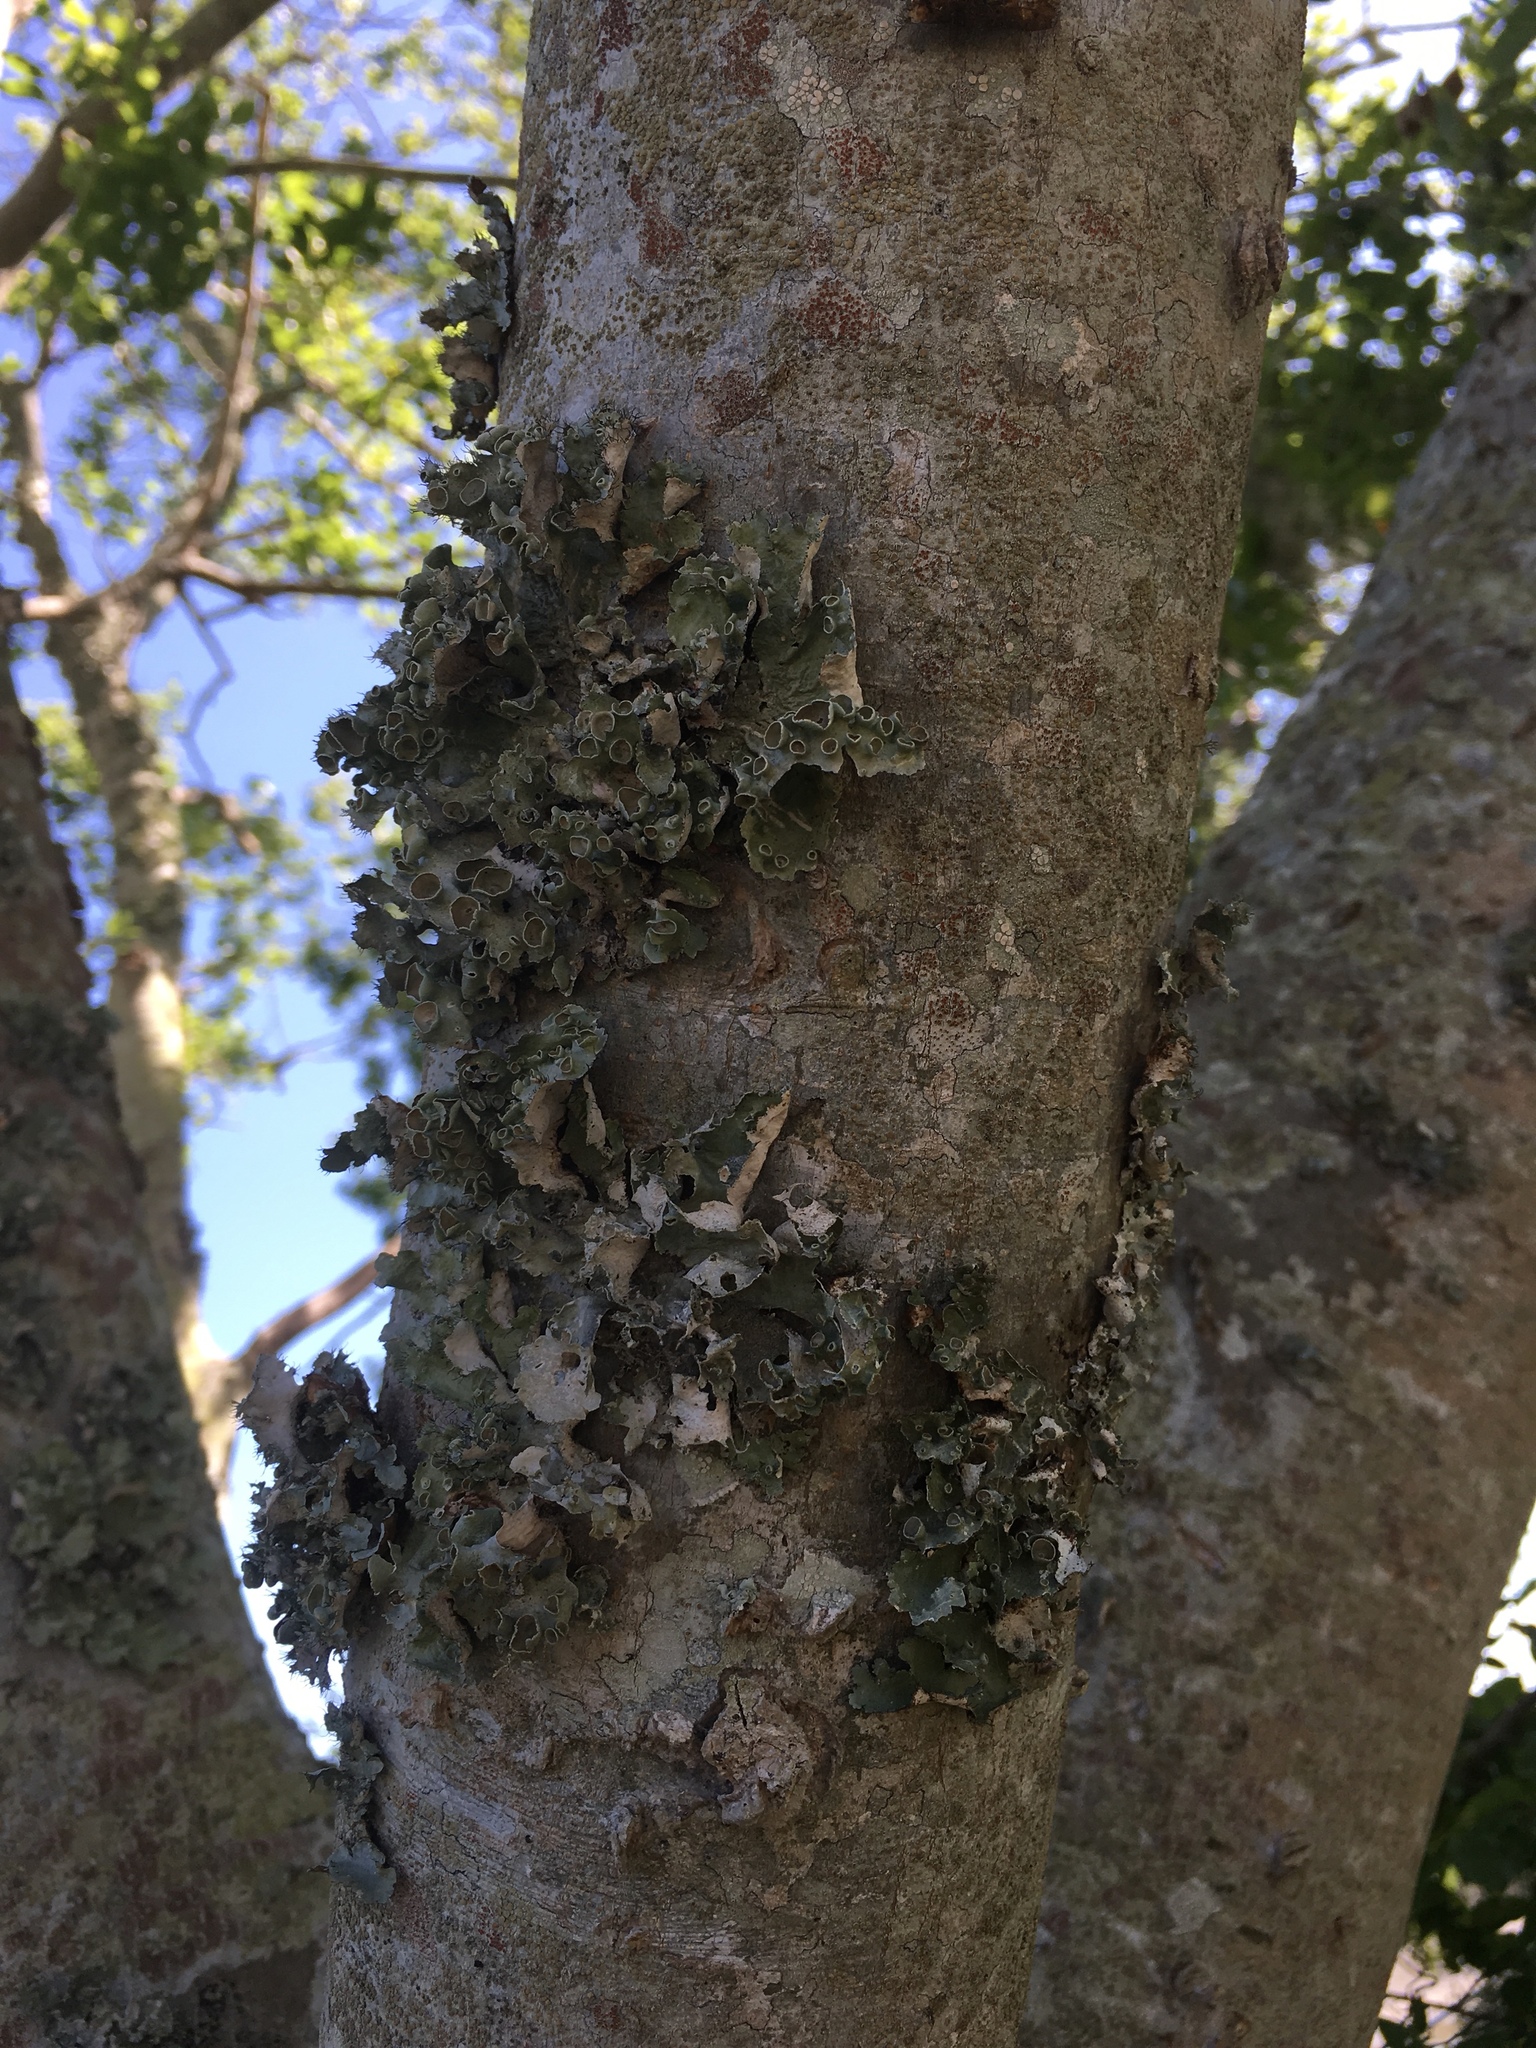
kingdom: Fungi
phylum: Ascomycota
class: Lecanoromycetes
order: Lecanorales
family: Parmeliaceae
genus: Parmotrema
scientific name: Parmotrema perforatum
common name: Perforated ruffle lichen
